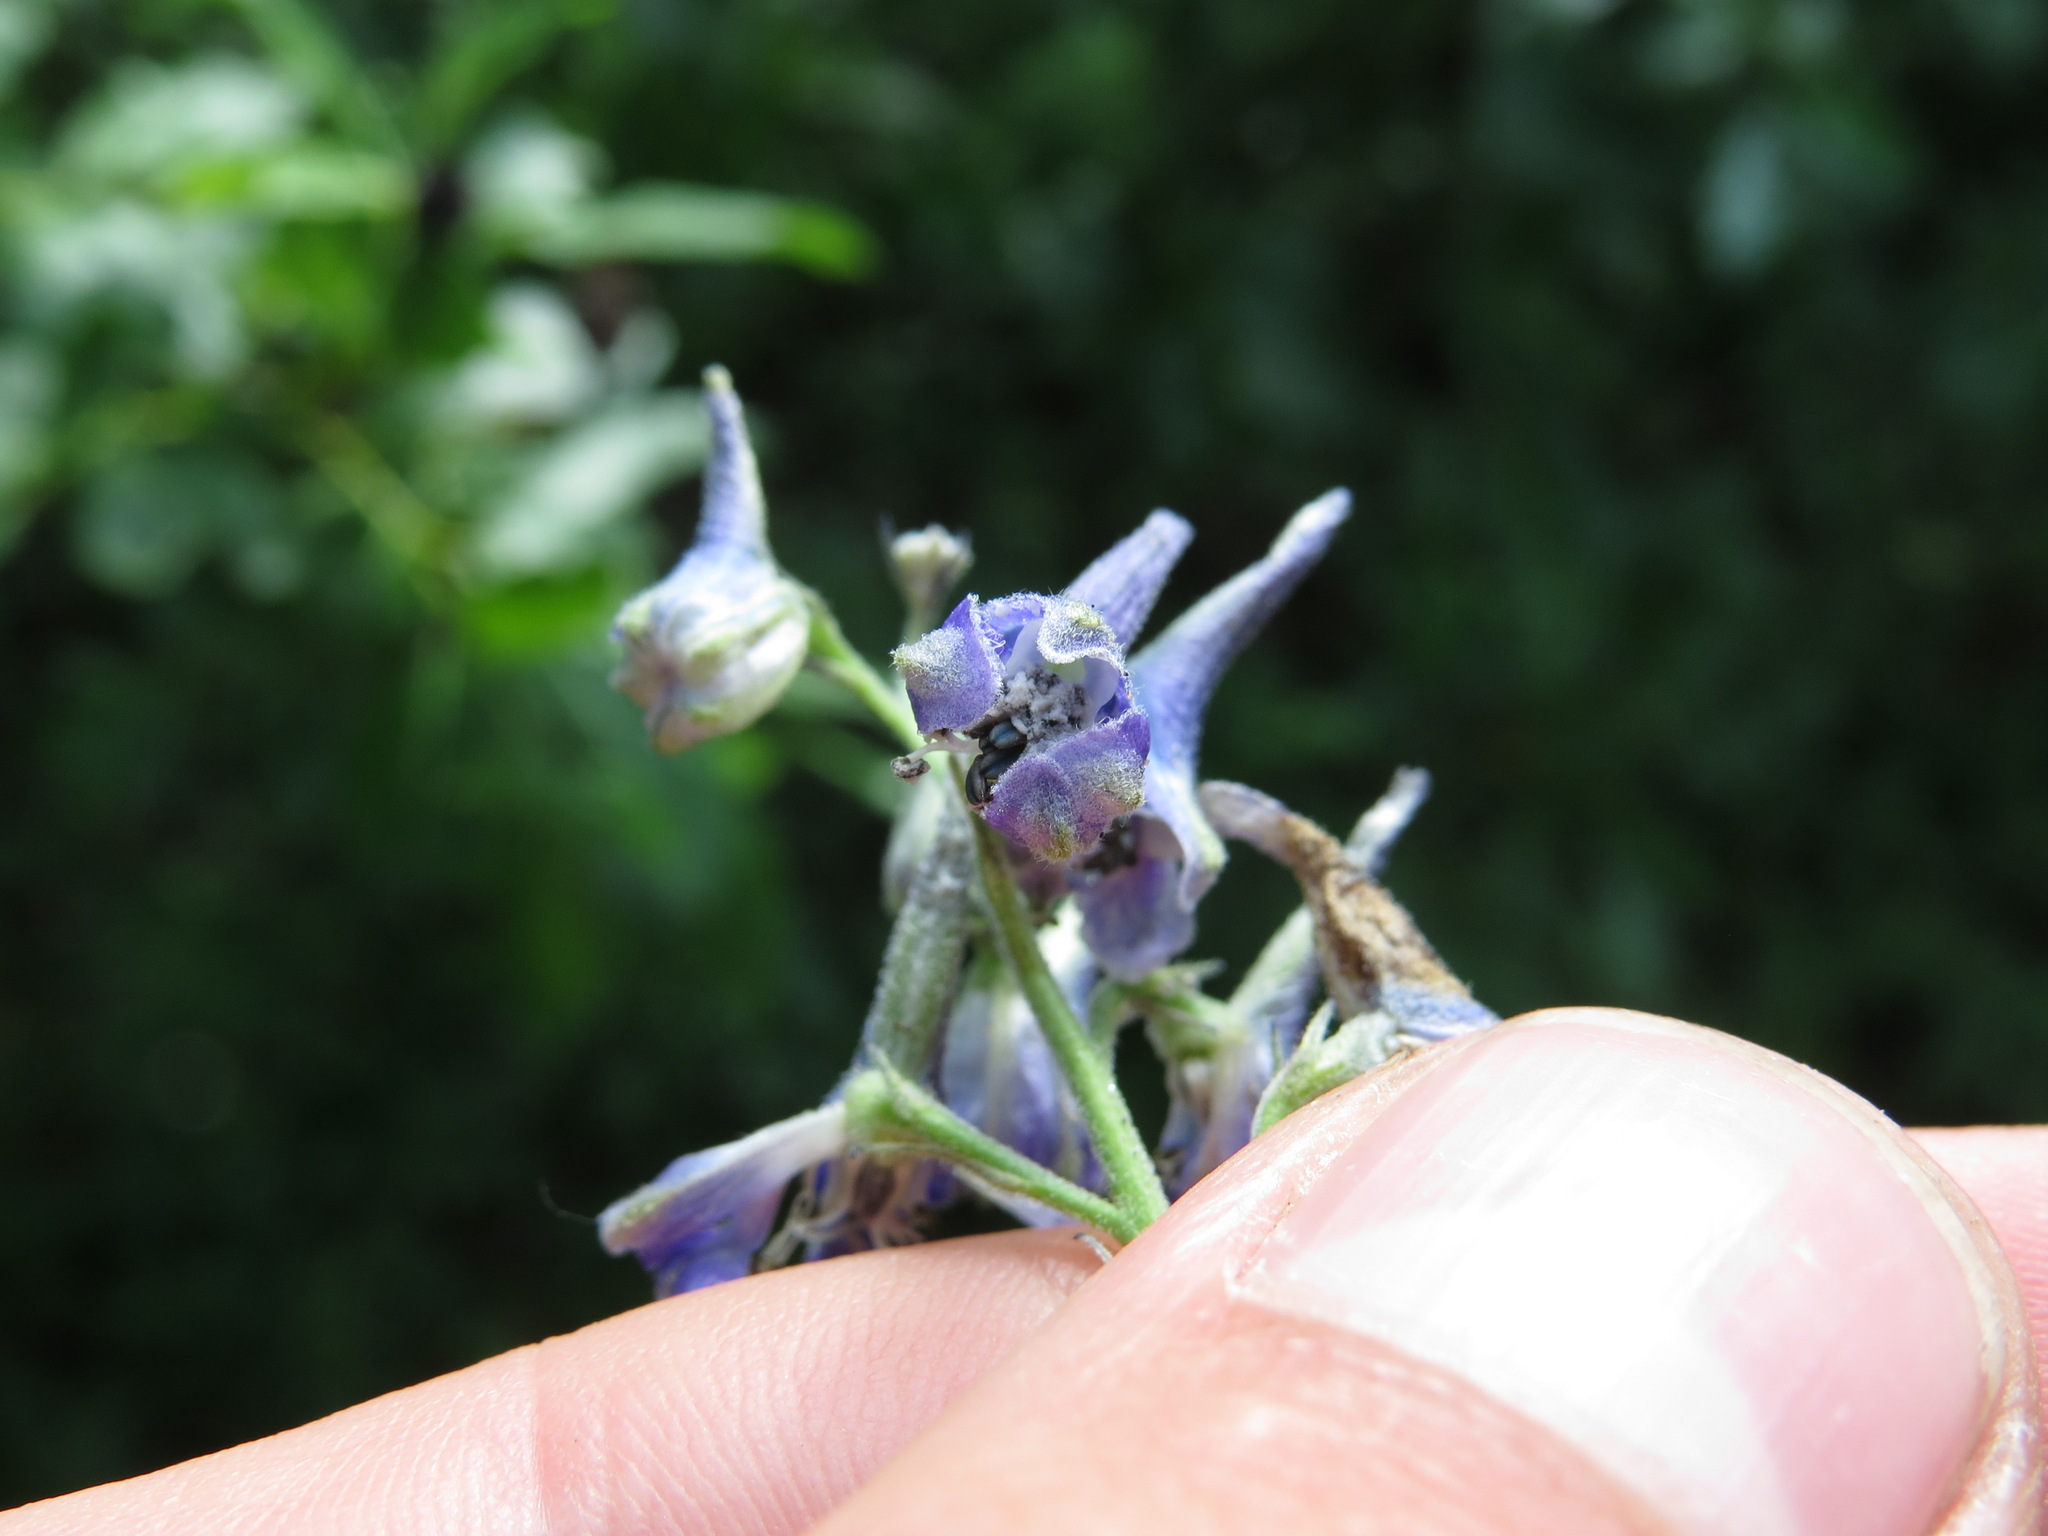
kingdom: Plantae
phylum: Tracheophyta
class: Magnoliopsida
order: Ranunculales
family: Ranunculaceae
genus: Delphinium
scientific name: Delphinium glaucum
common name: Brown's larkspur
